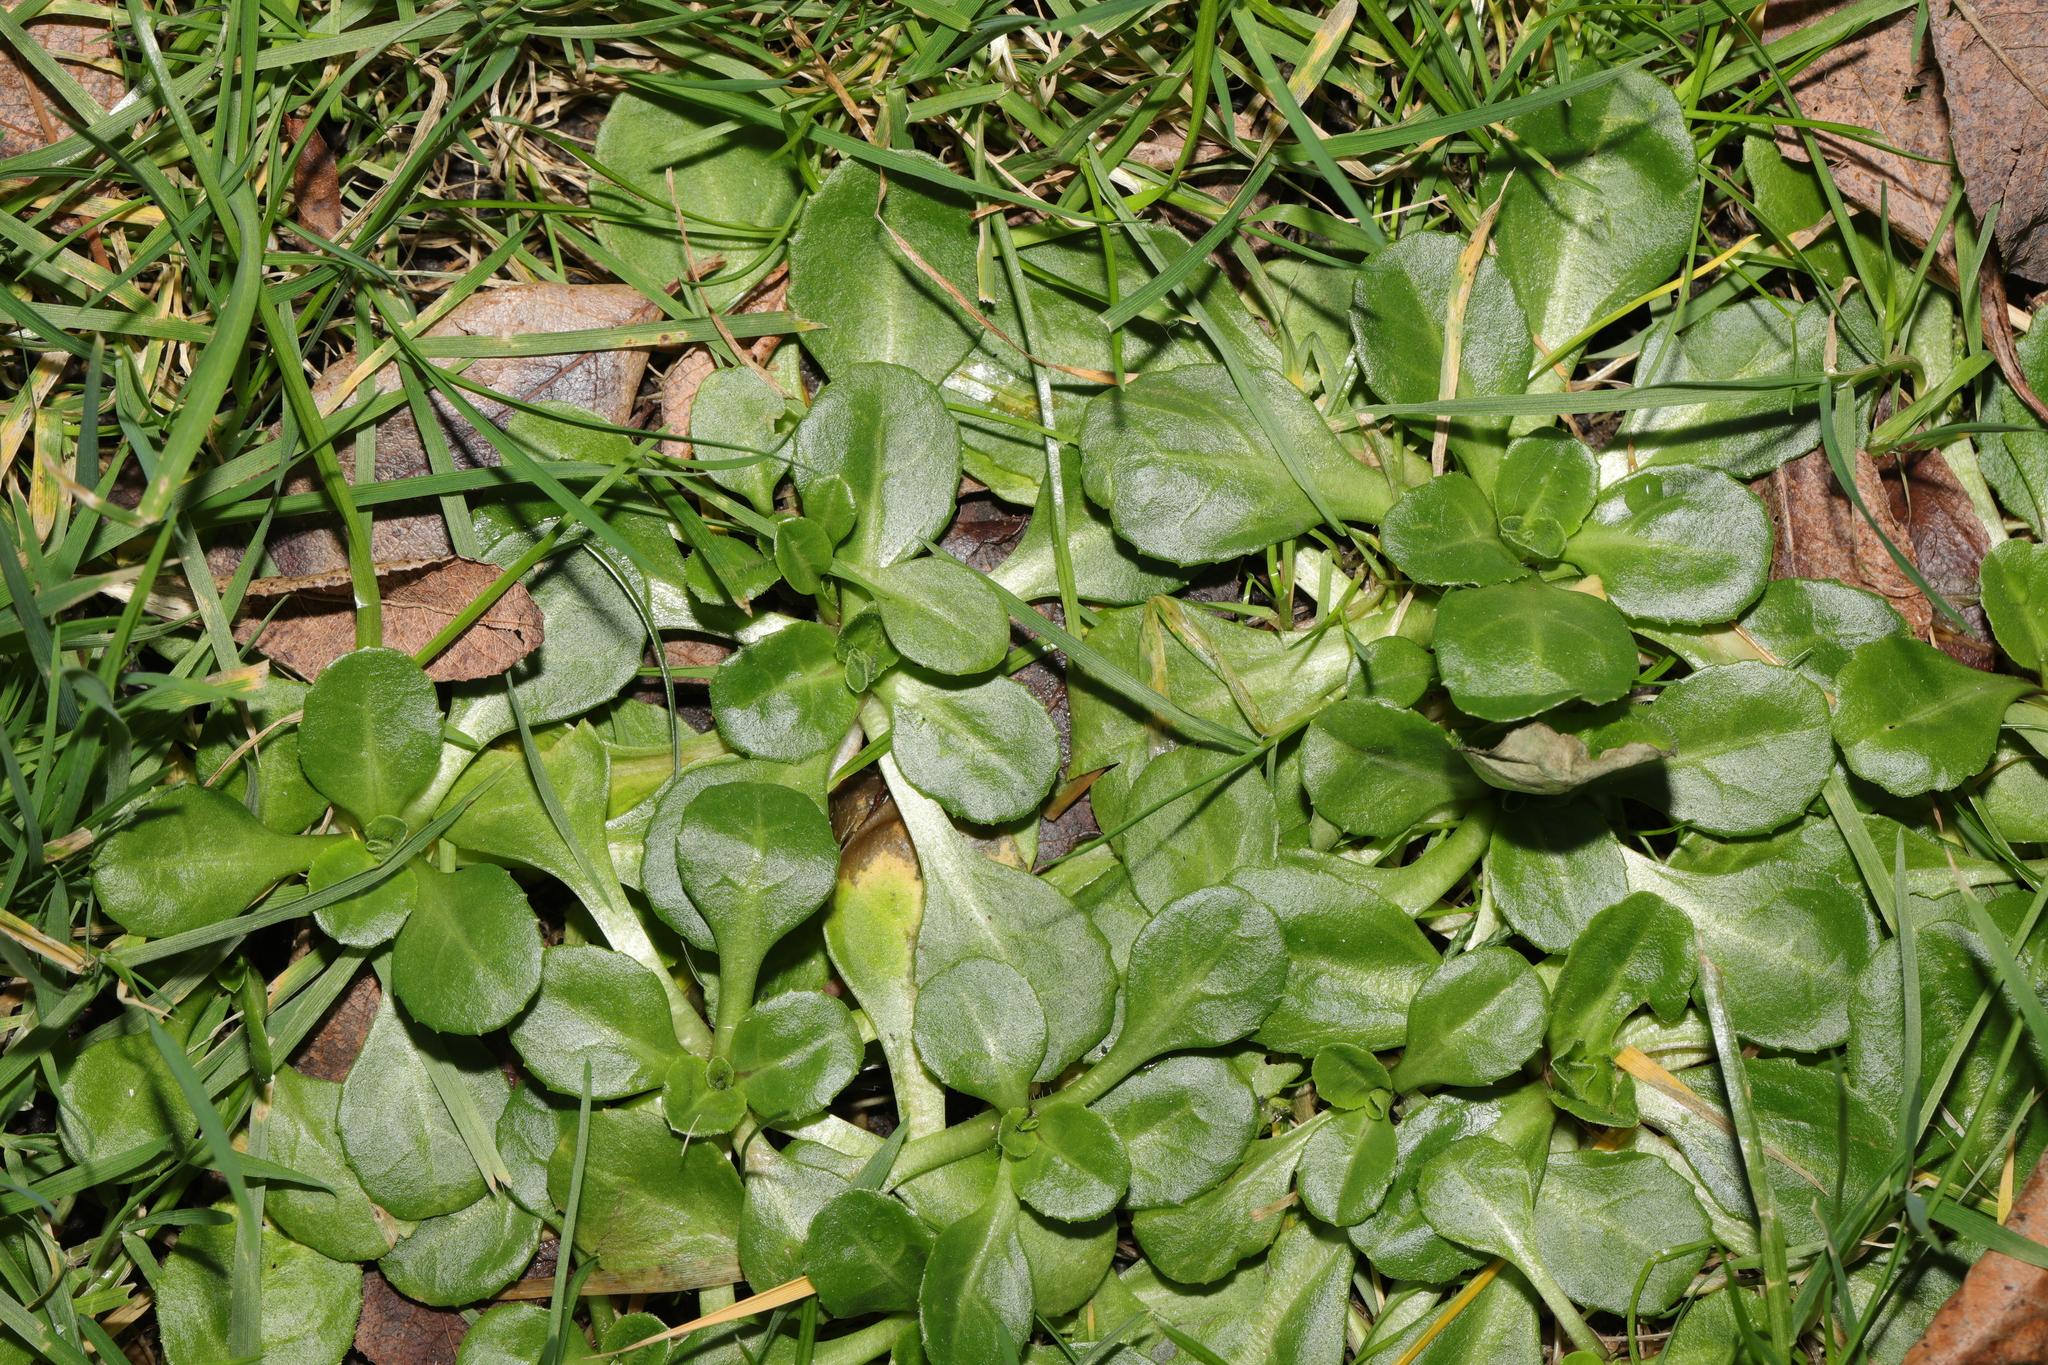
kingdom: Plantae
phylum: Tracheophyta
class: Magnoliopsida
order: Asterales
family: Asteraceae
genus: Bellis
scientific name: Bellis perennis
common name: Lawndaisy
